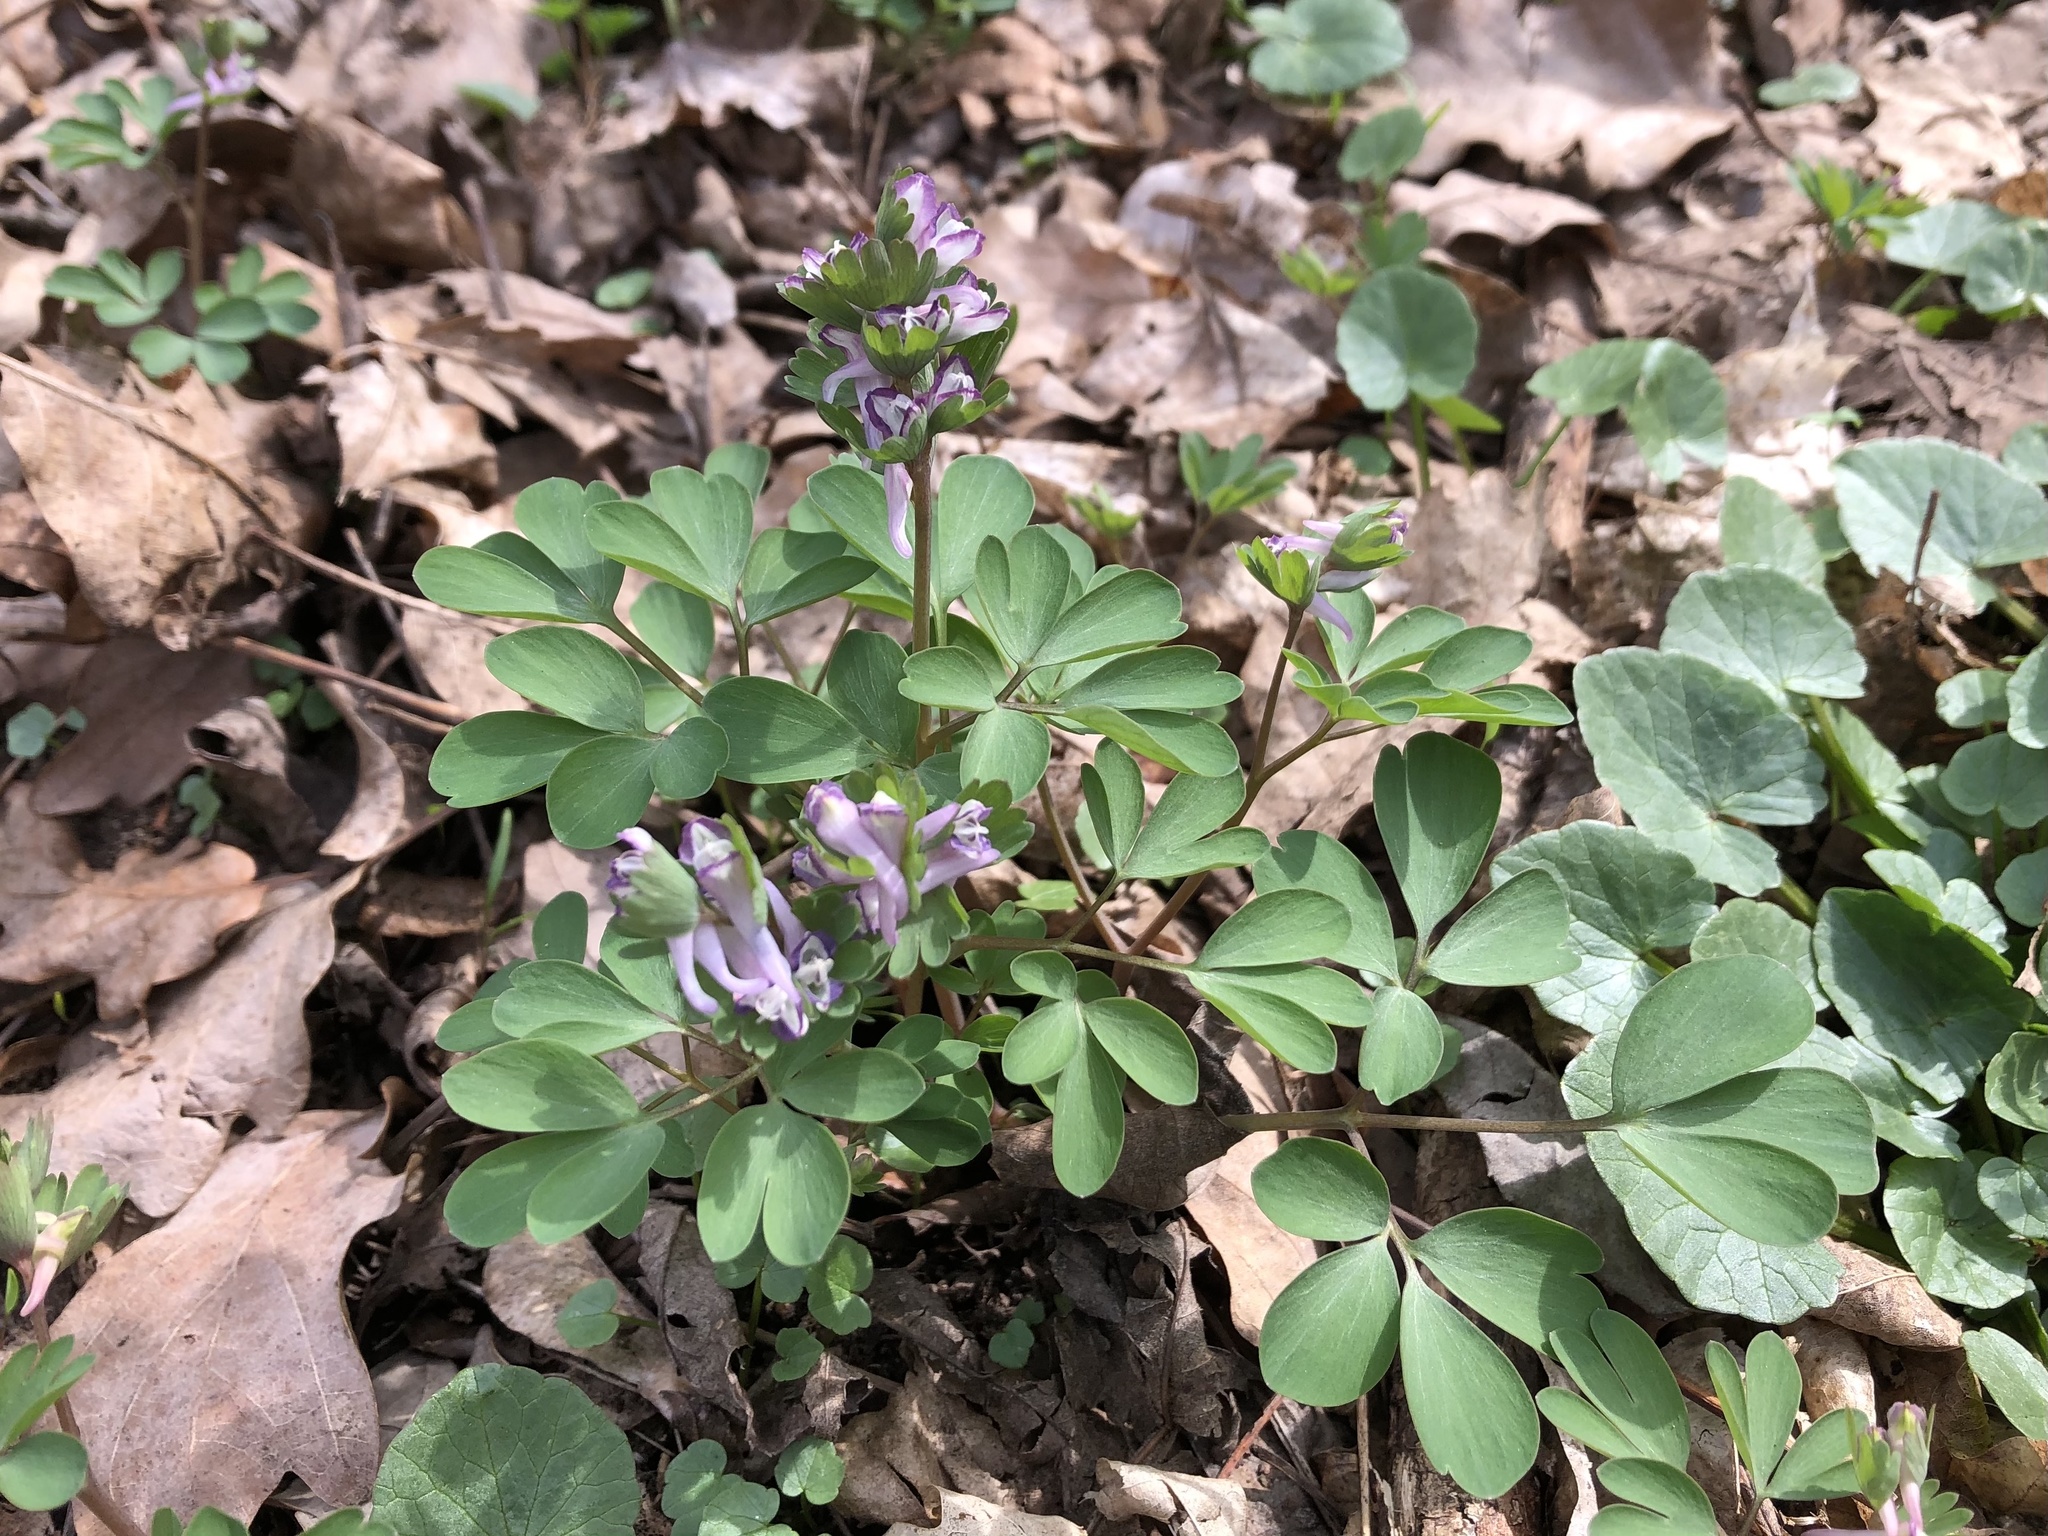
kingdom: Plantae
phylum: Tracheophyta
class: Magnoliopsida
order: Ranunculales
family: Papaveraceae
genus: Corydalis
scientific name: Corydalis pumila
